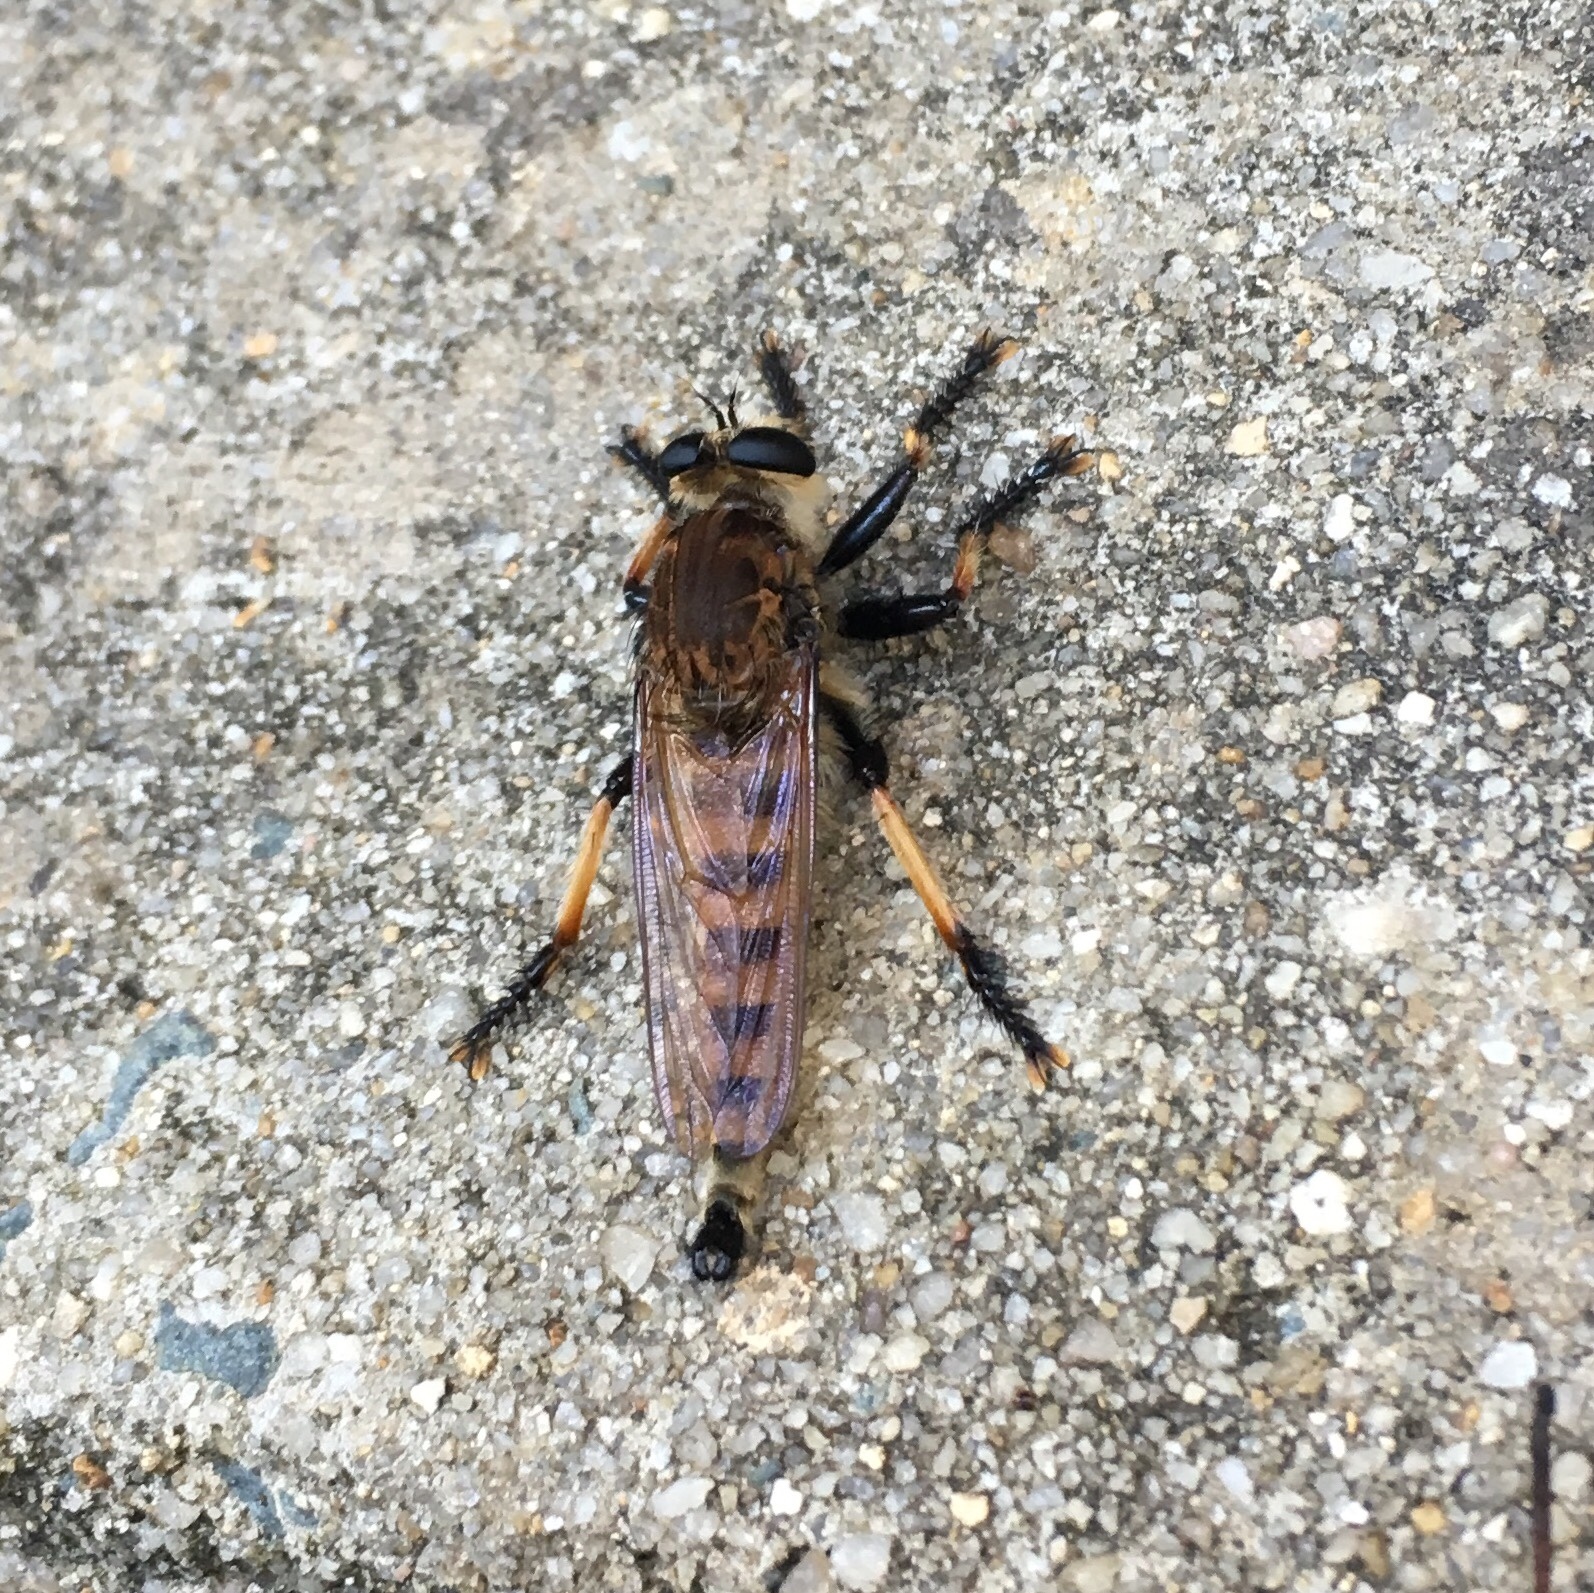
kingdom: Animalia
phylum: Arthropoda
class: Insecta
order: Diptera
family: Asilidae
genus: Promachus
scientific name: Promachus rufipes
